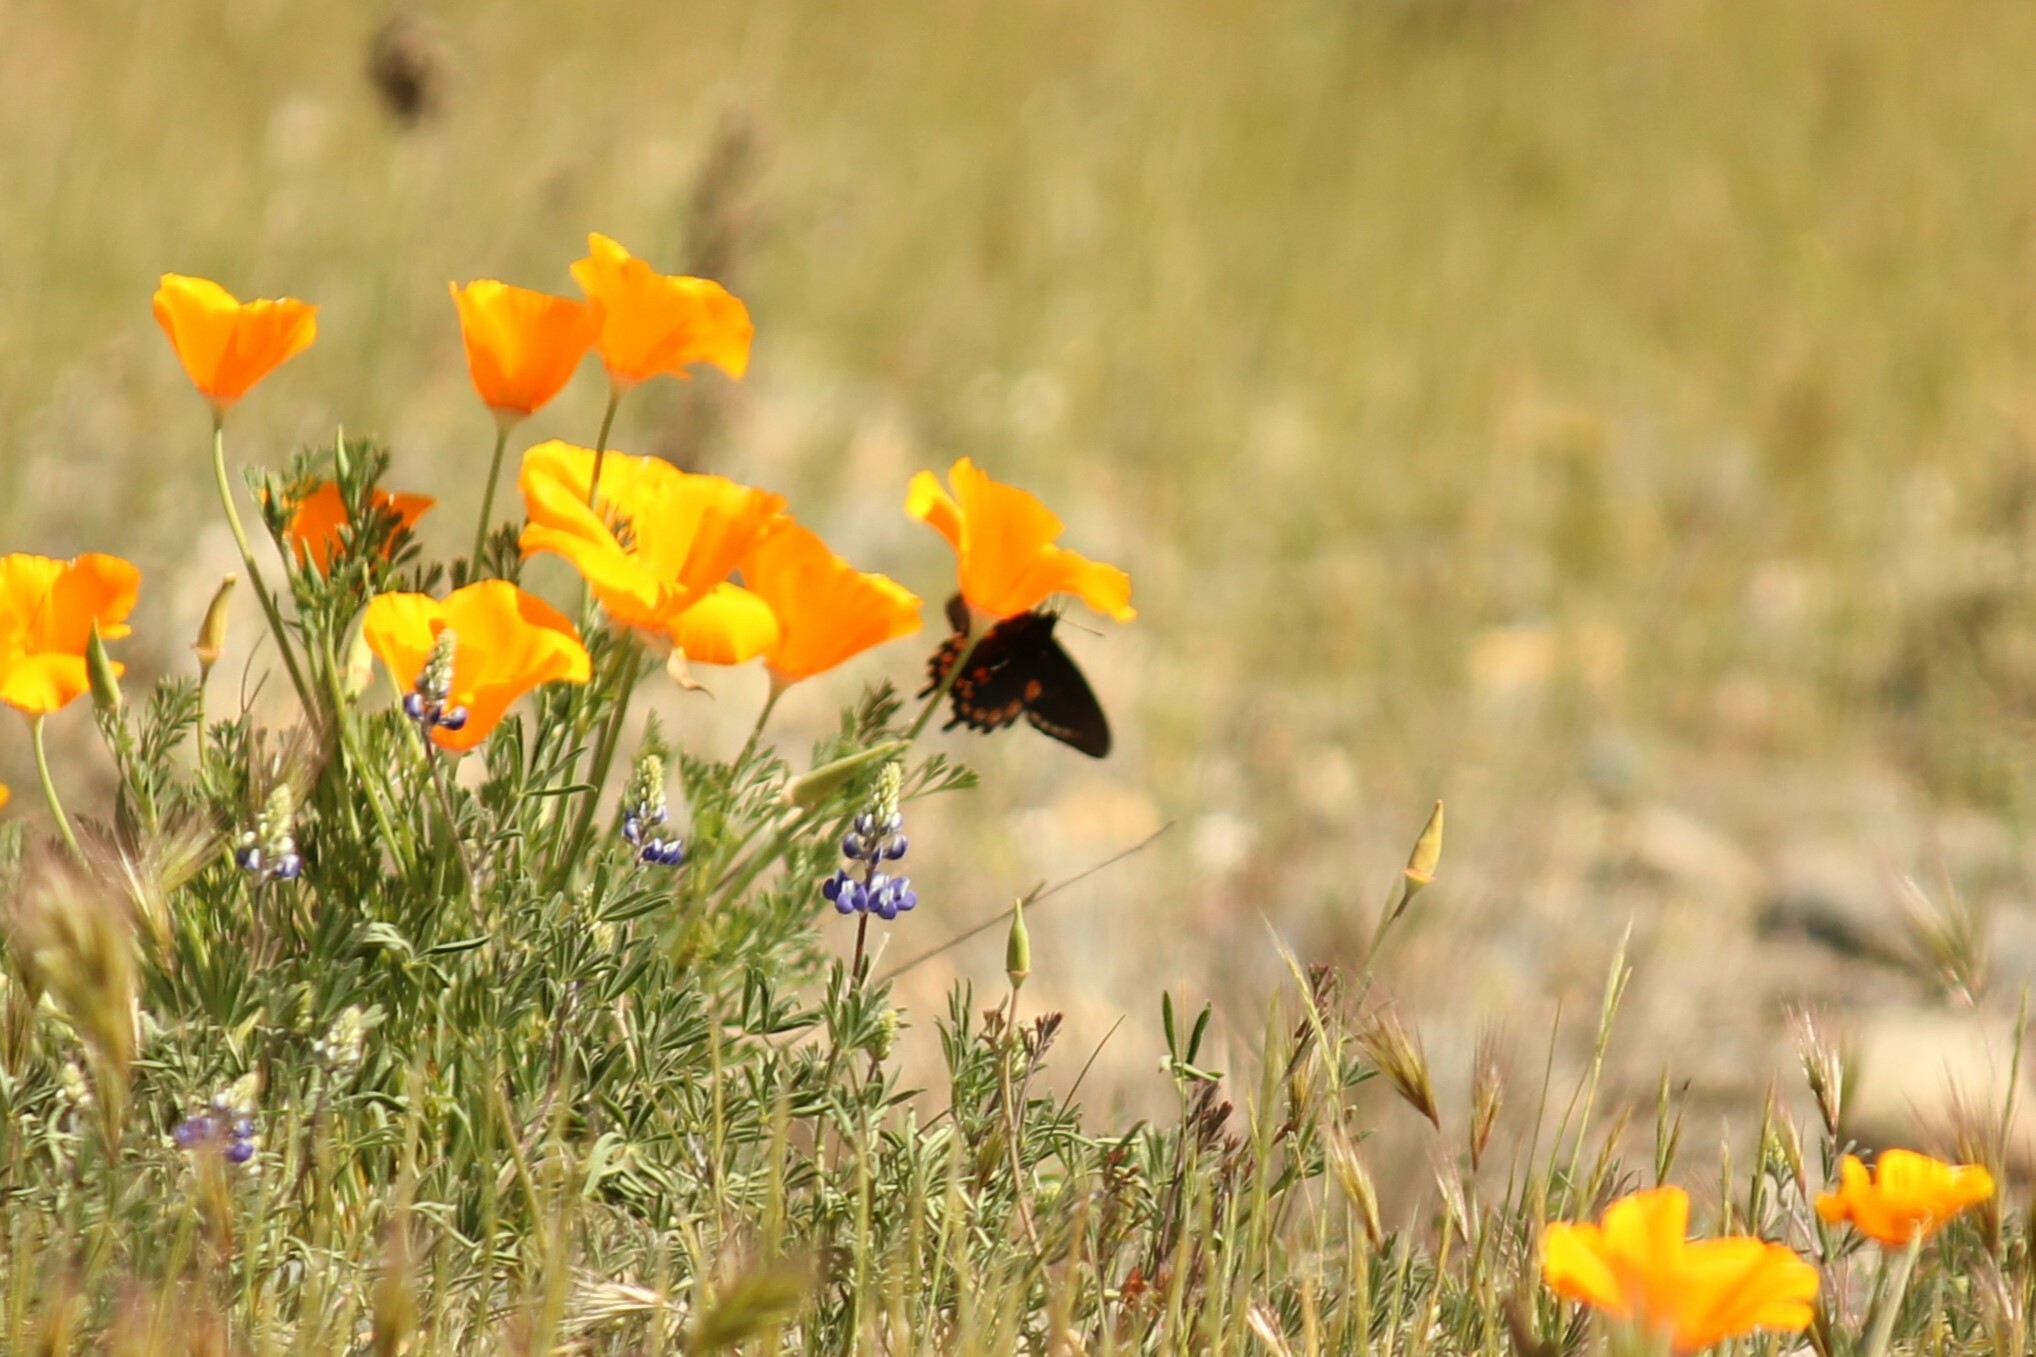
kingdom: Animalia
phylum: Arthropoda
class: Insecta
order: Lepidoptera
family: Papilionidae
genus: Battus
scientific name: Battus philenor
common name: Pipevine swallowtail
